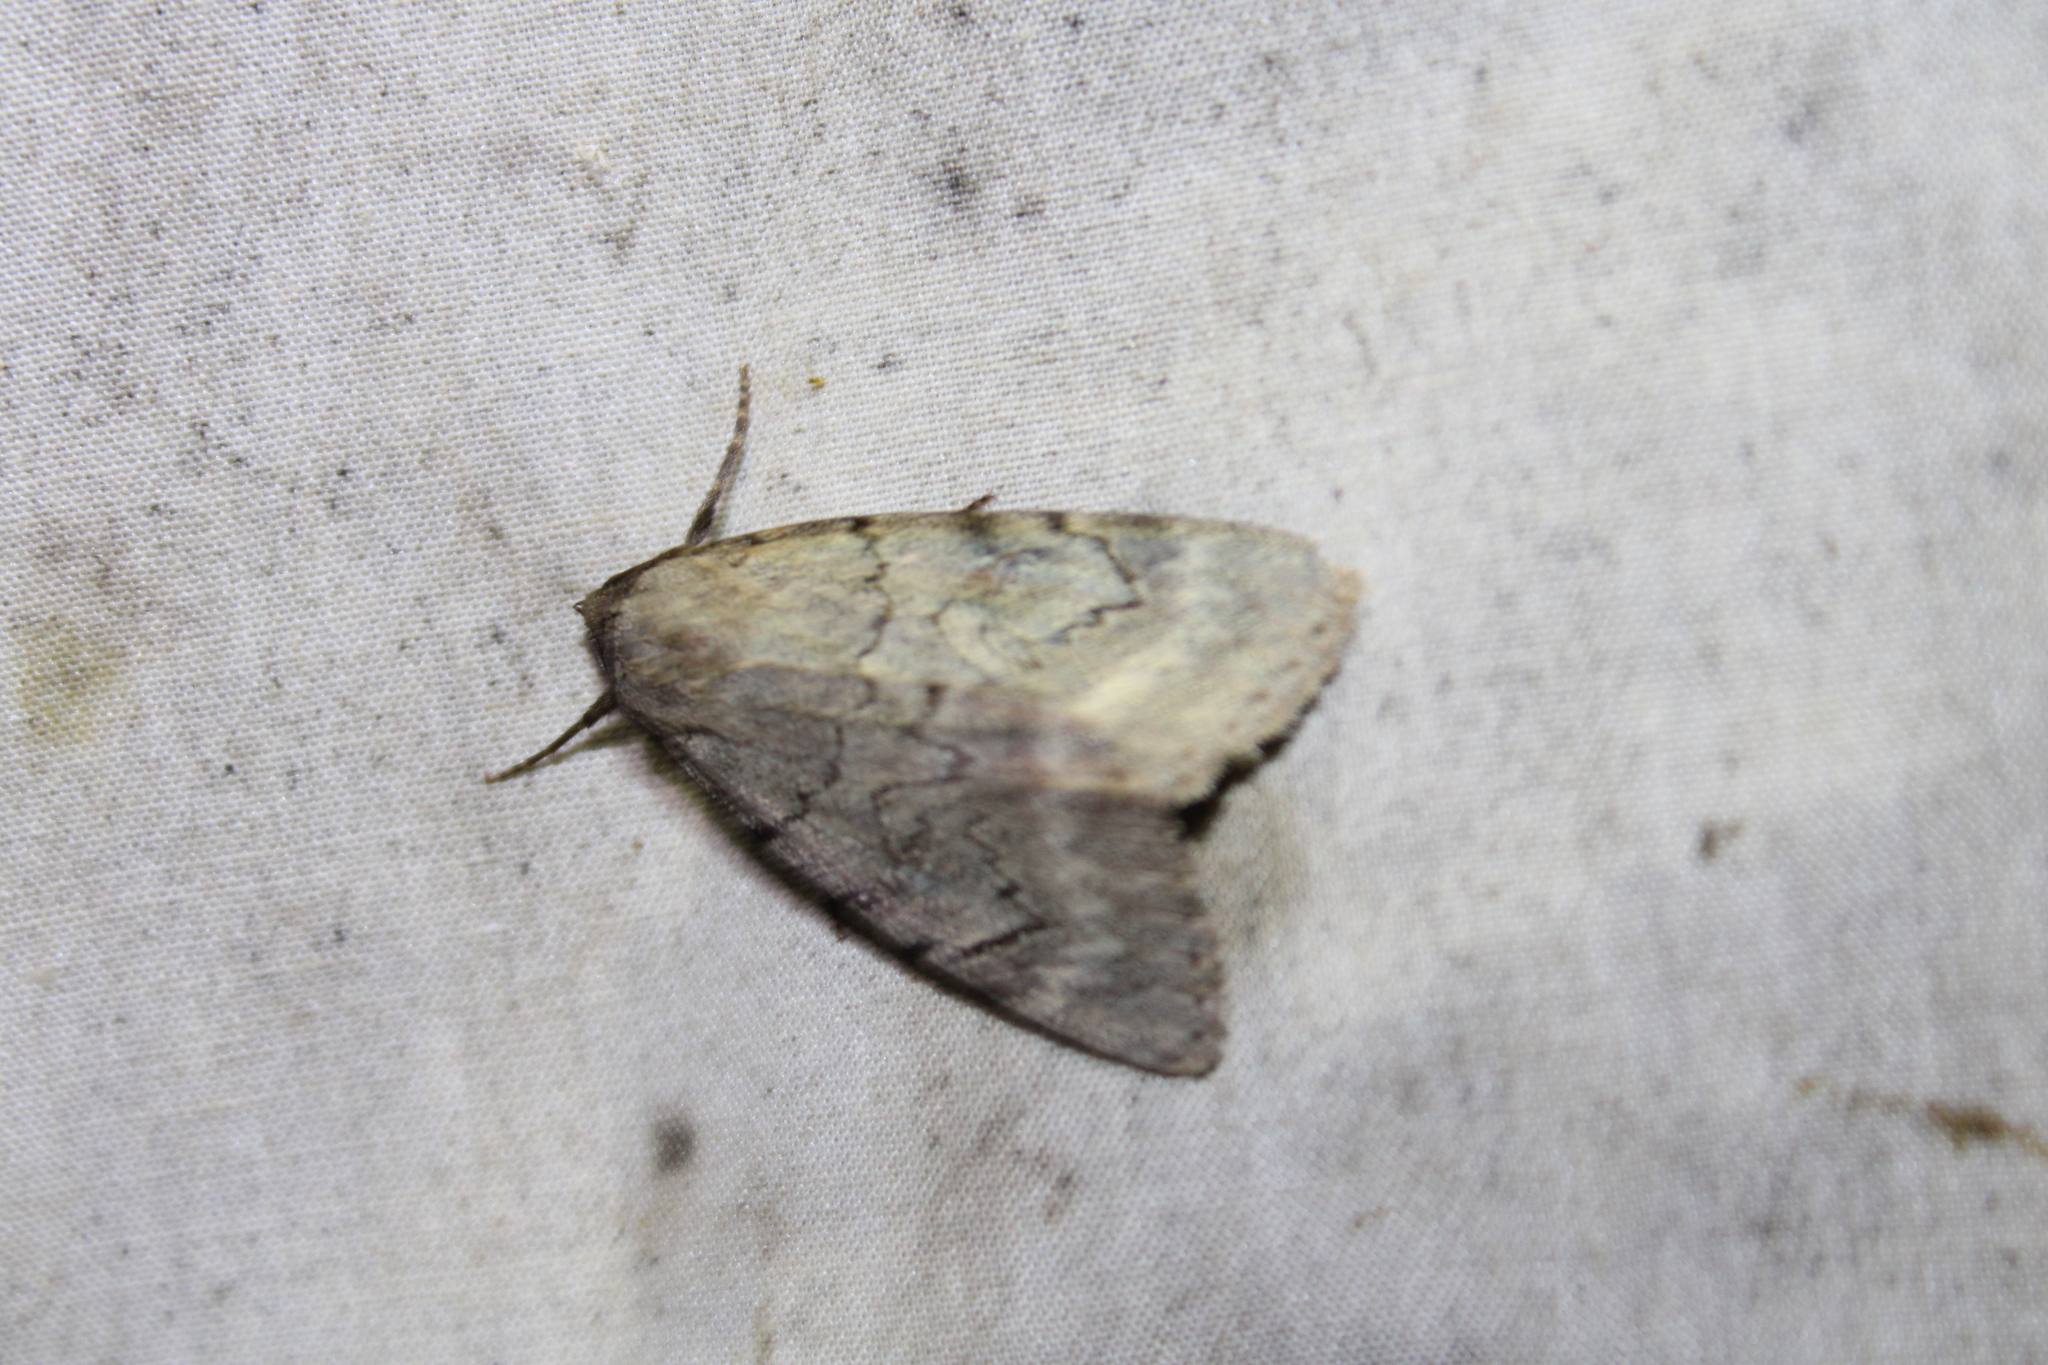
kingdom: Animalia
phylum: Arthropoda
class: Insecta
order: Lepidoptera
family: Erebidae
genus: Catocala
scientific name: Catocala serena
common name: Serene underwing
